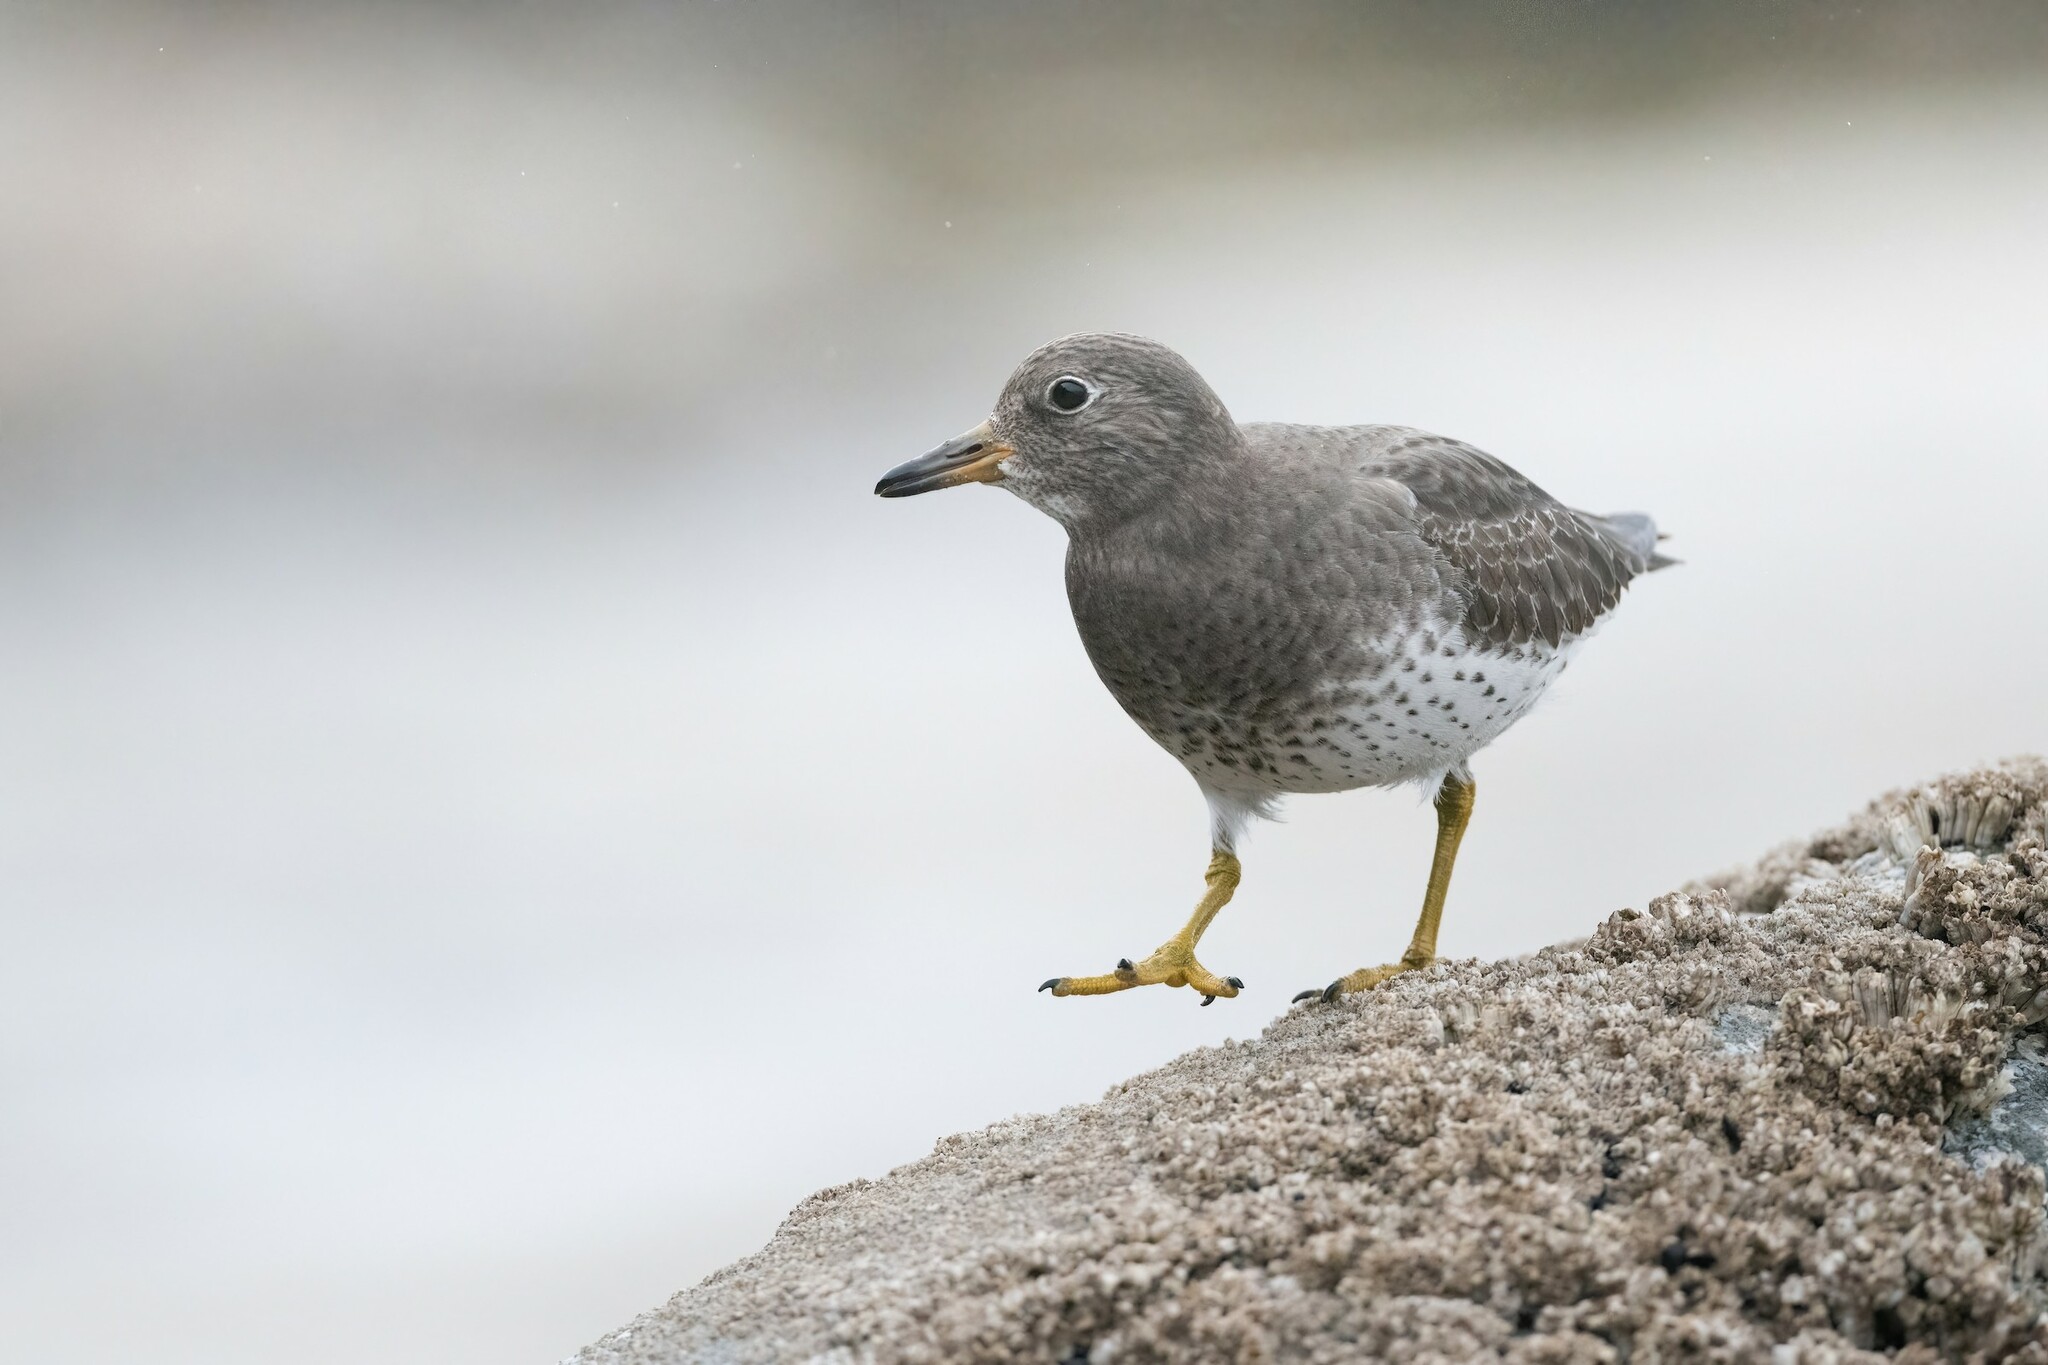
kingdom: Animalia
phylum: Chordata
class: Aves
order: Charadriiformes
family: Scolopacidae
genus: Calidris
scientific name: Calidris virgata
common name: Surfbird
